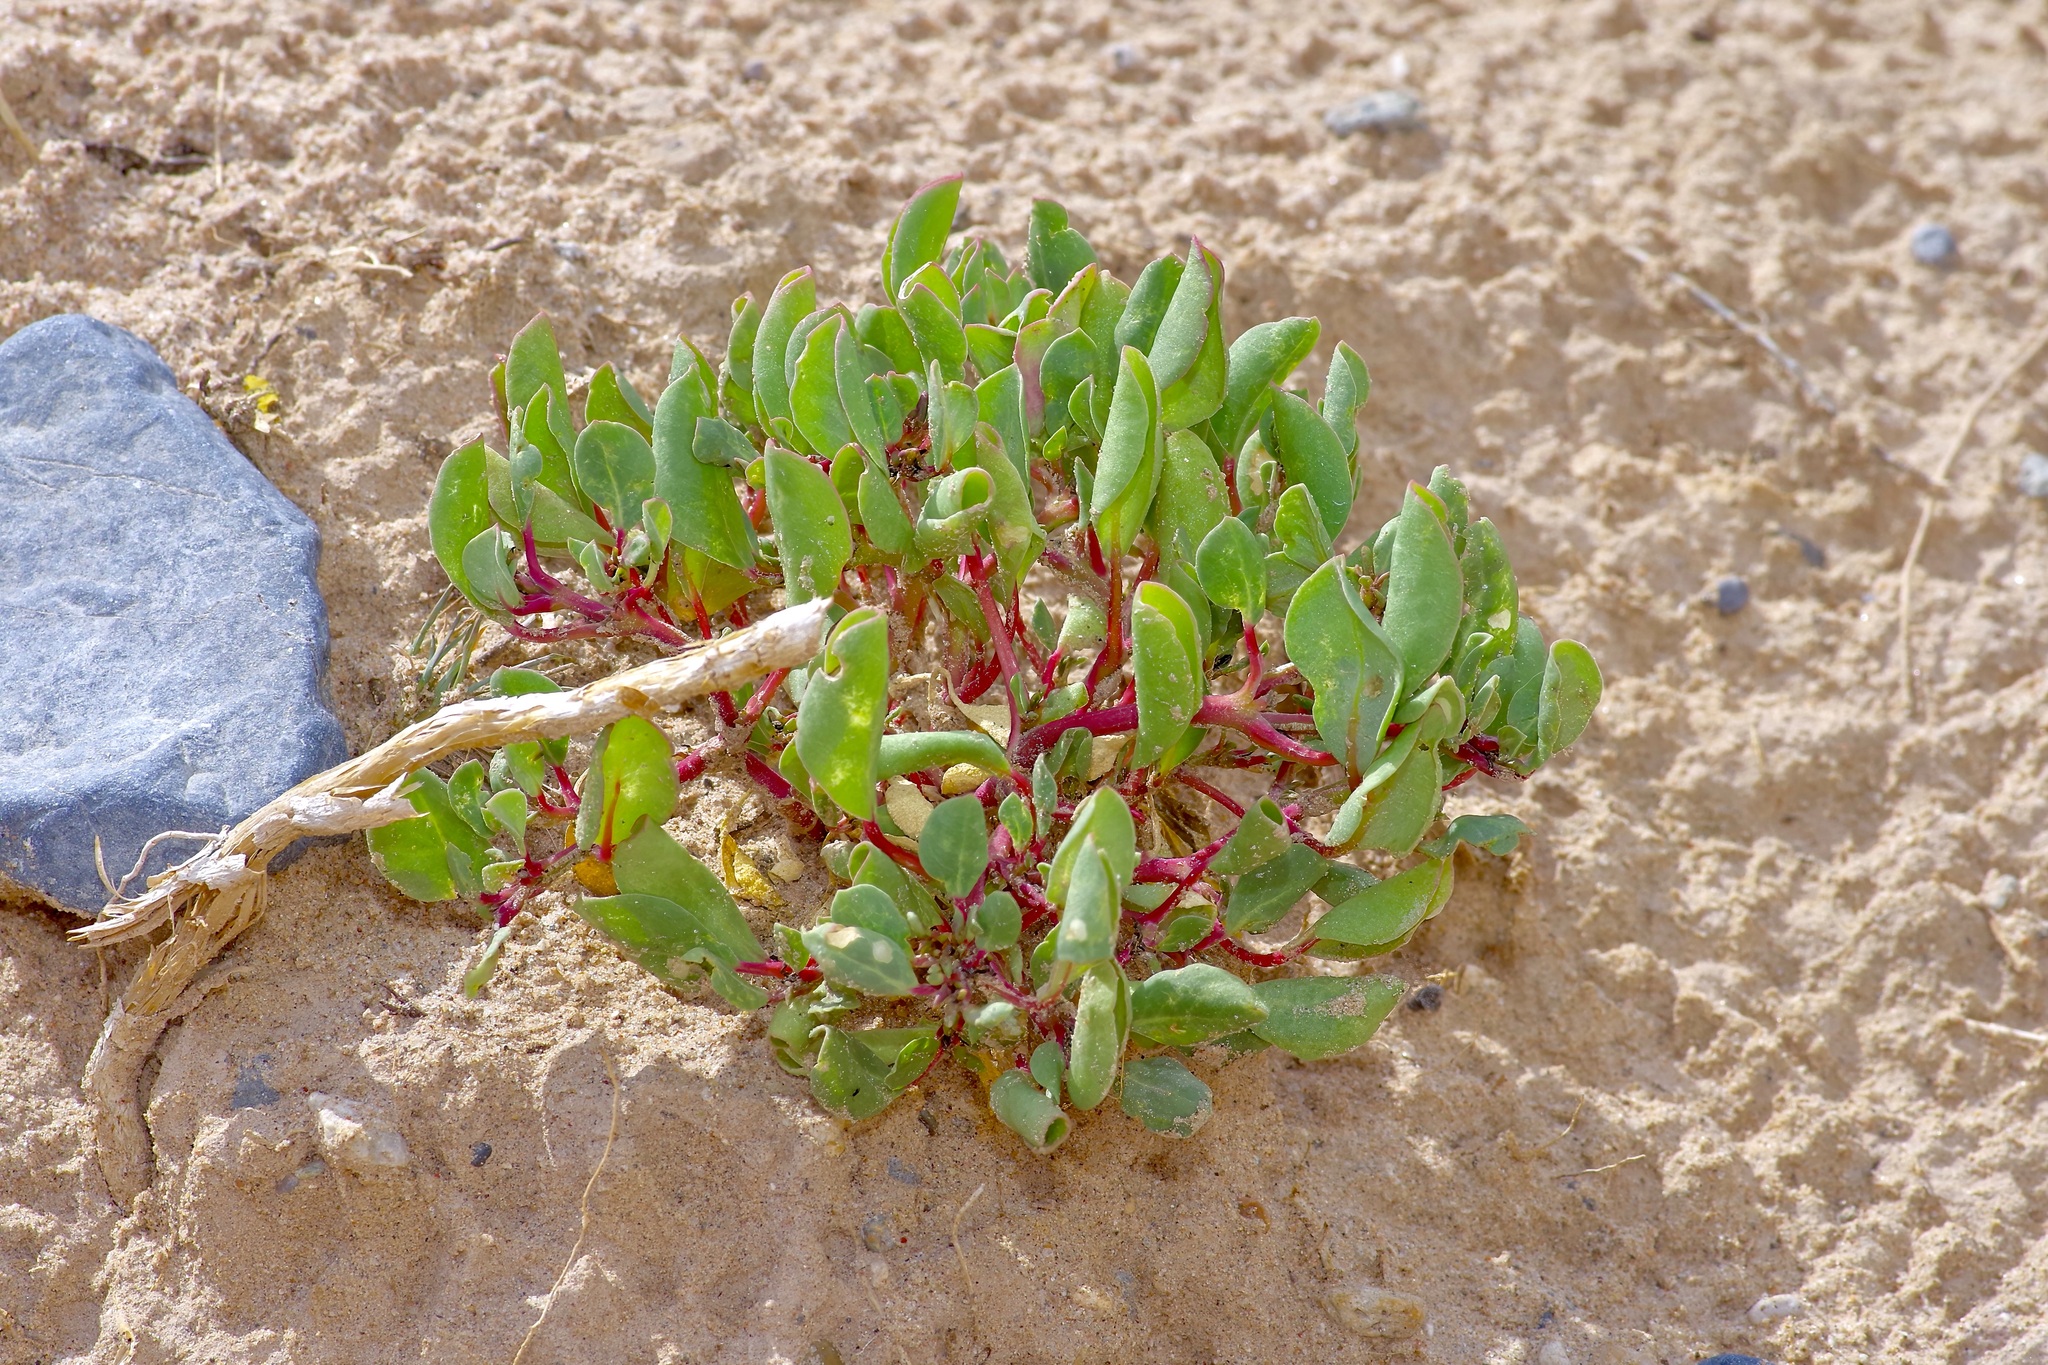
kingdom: Plantae
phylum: Tracheophyta
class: Magnoliopsida
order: Caryophyllales
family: Aizoaceae
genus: Trianthema
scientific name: Trianthema portulacastrum
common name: Desert horsepurslane
